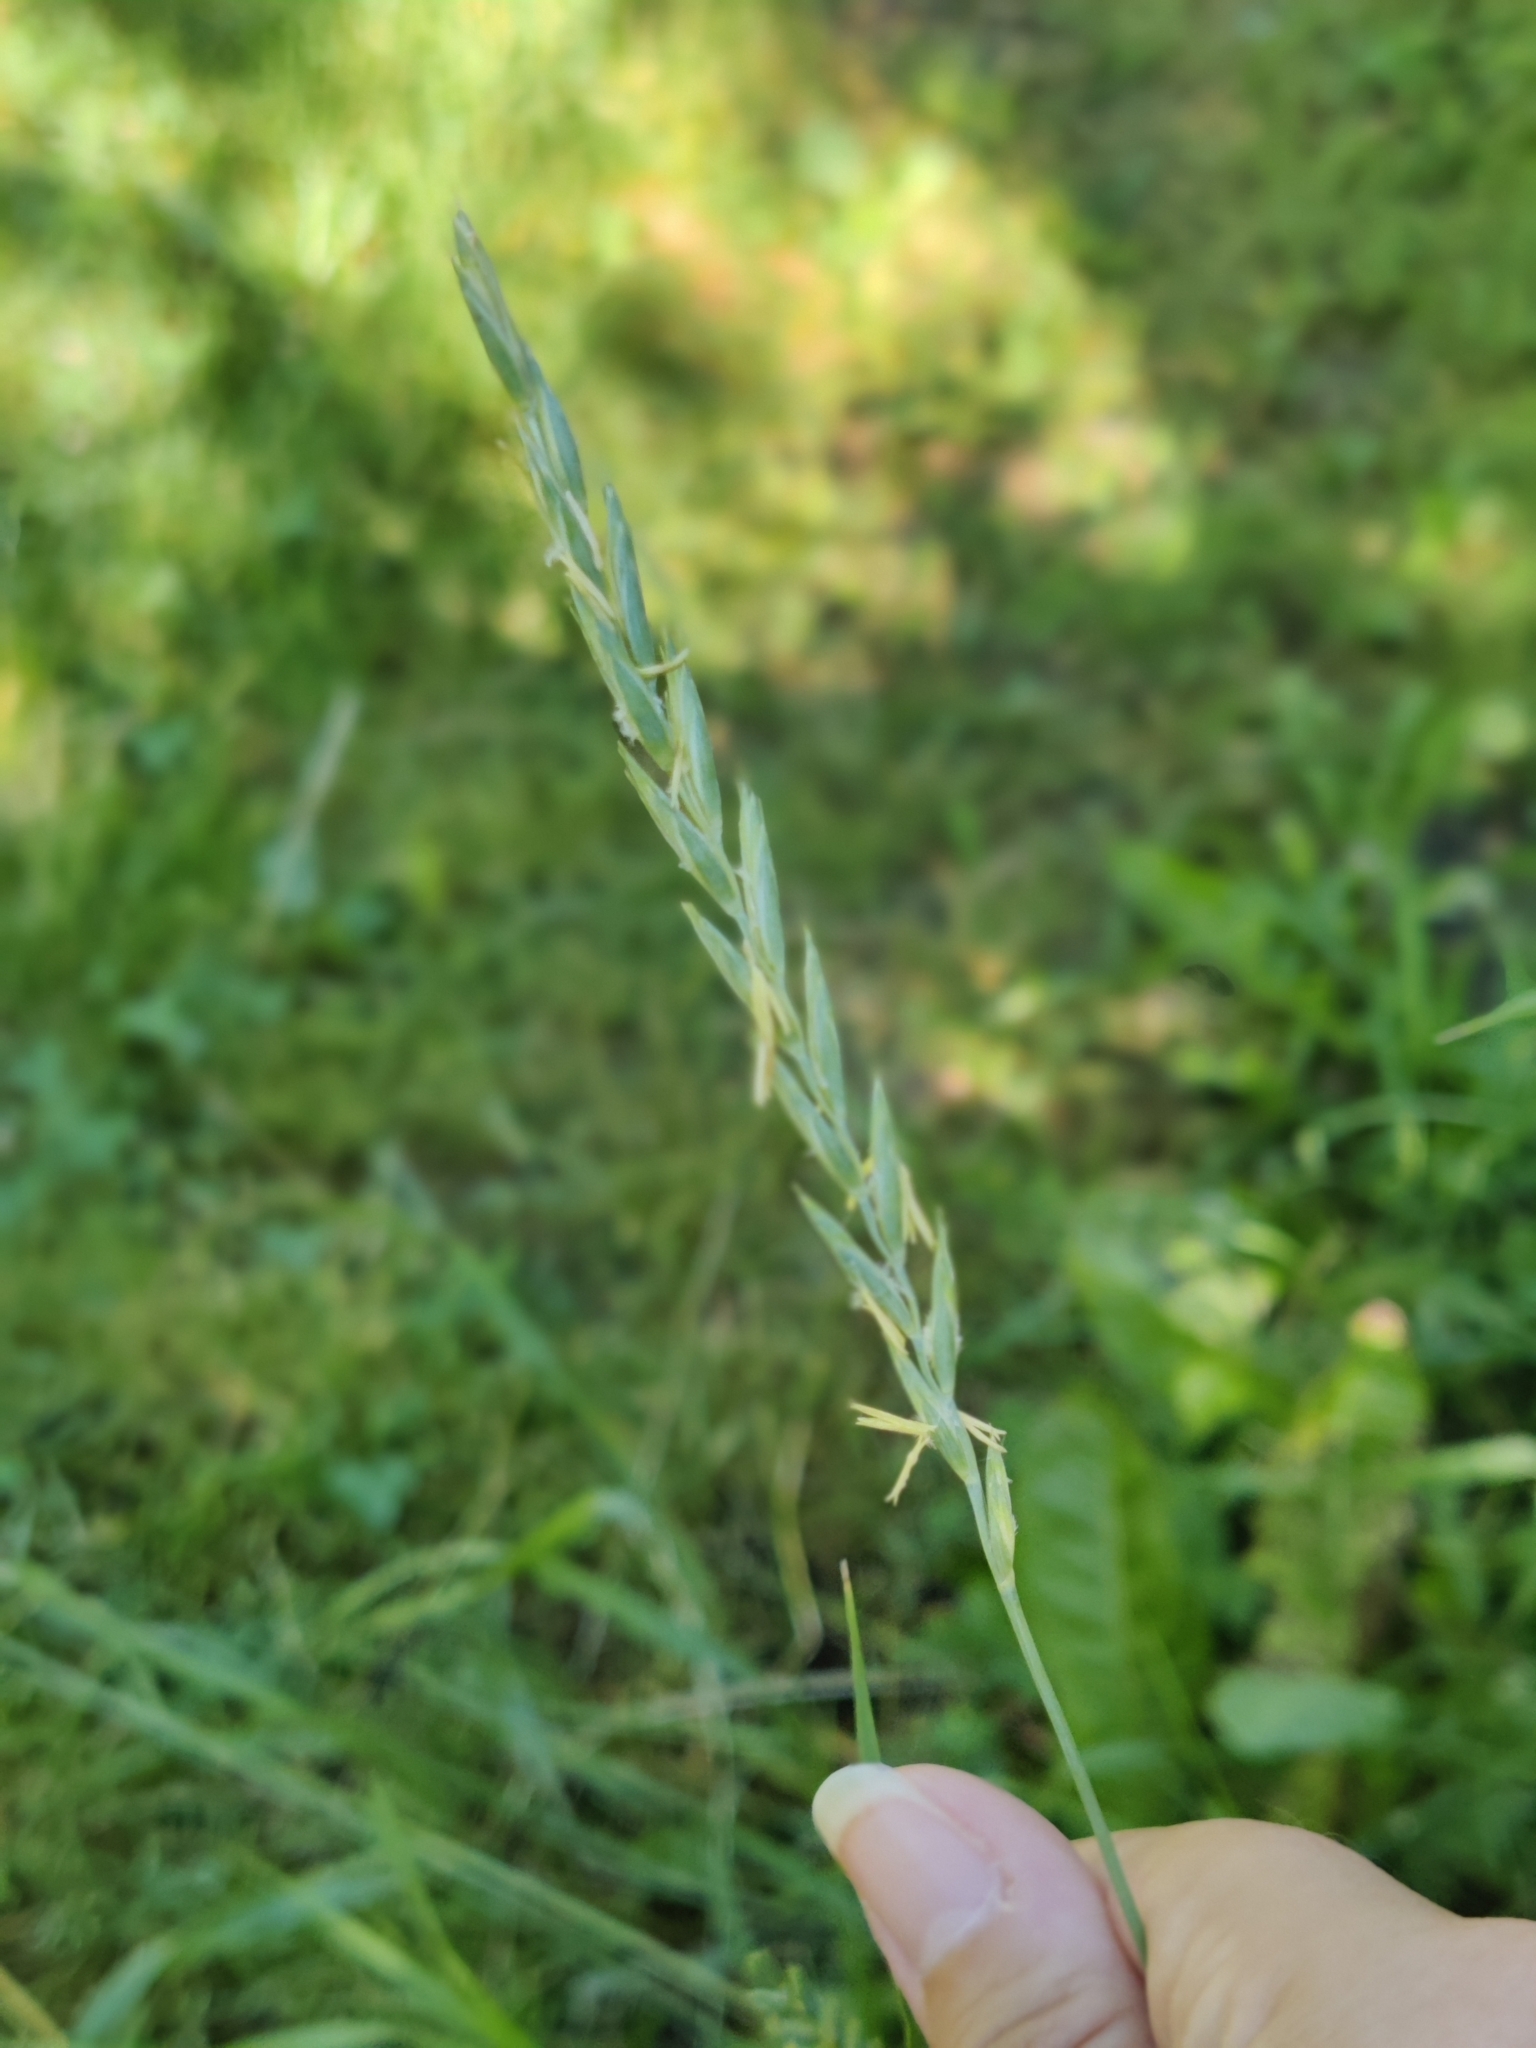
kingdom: Plantae
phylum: Tracheophyta
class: Liliopsida
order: Poales
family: Poaceae
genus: Elymus
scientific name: Elymus repens
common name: Quackgrass
